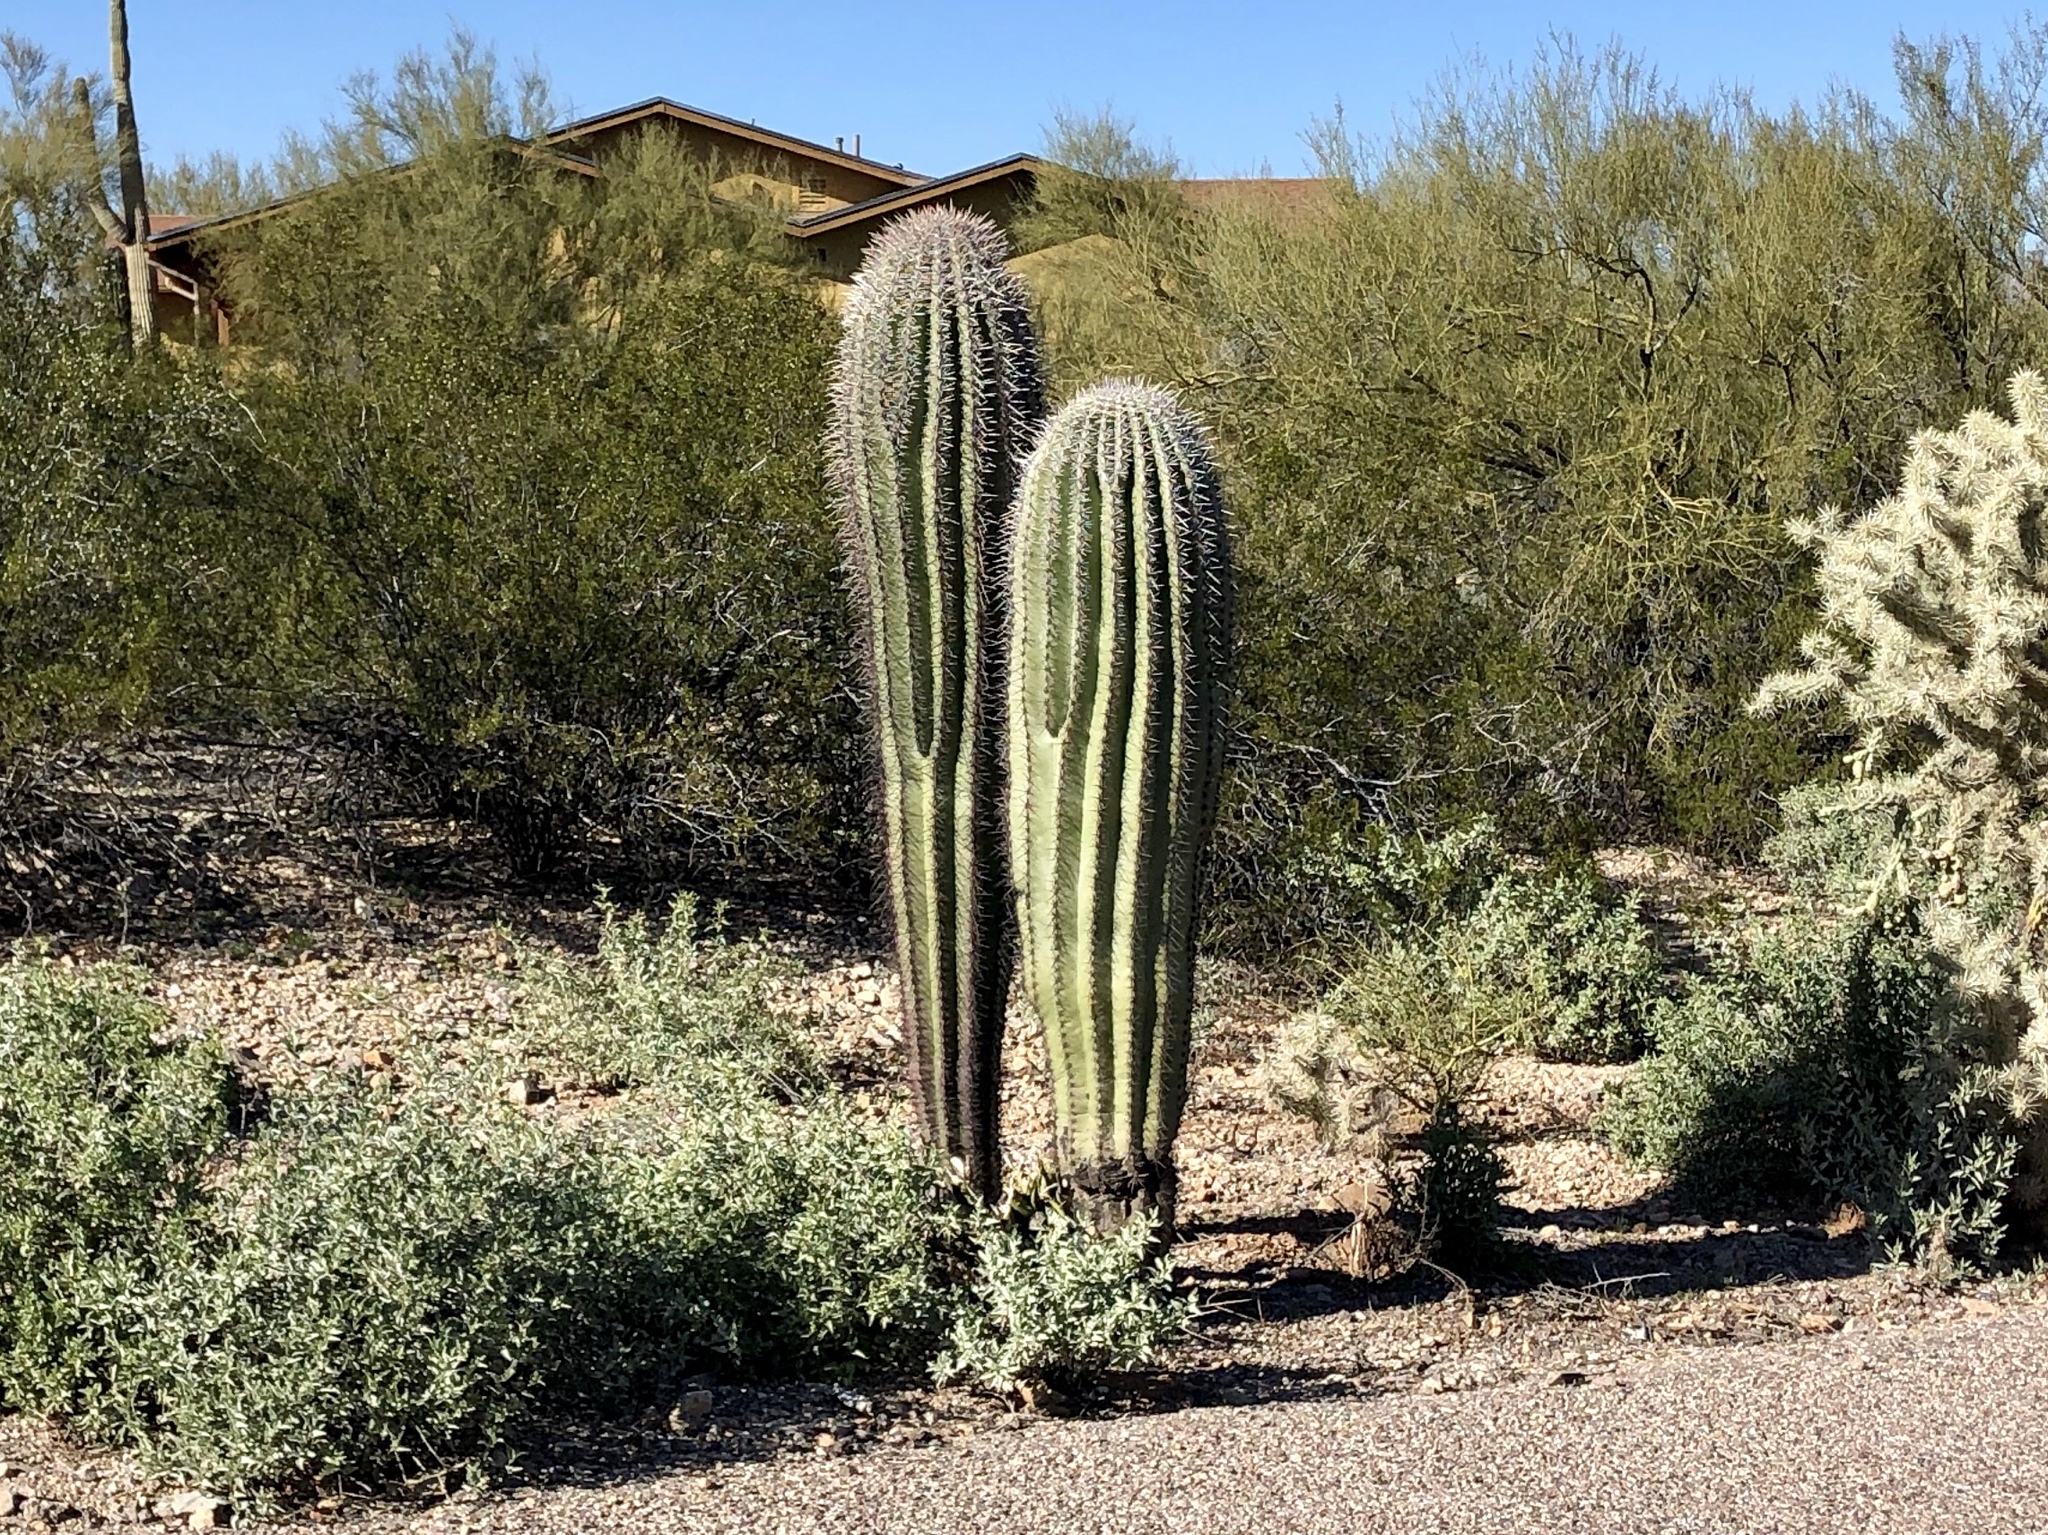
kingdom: Plantae
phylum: Tracheophyta
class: Magnoliopsida
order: Caryophyllales
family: Cactaceae
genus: Carnegiea
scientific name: Carnegiea gigantea
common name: Saguaro
